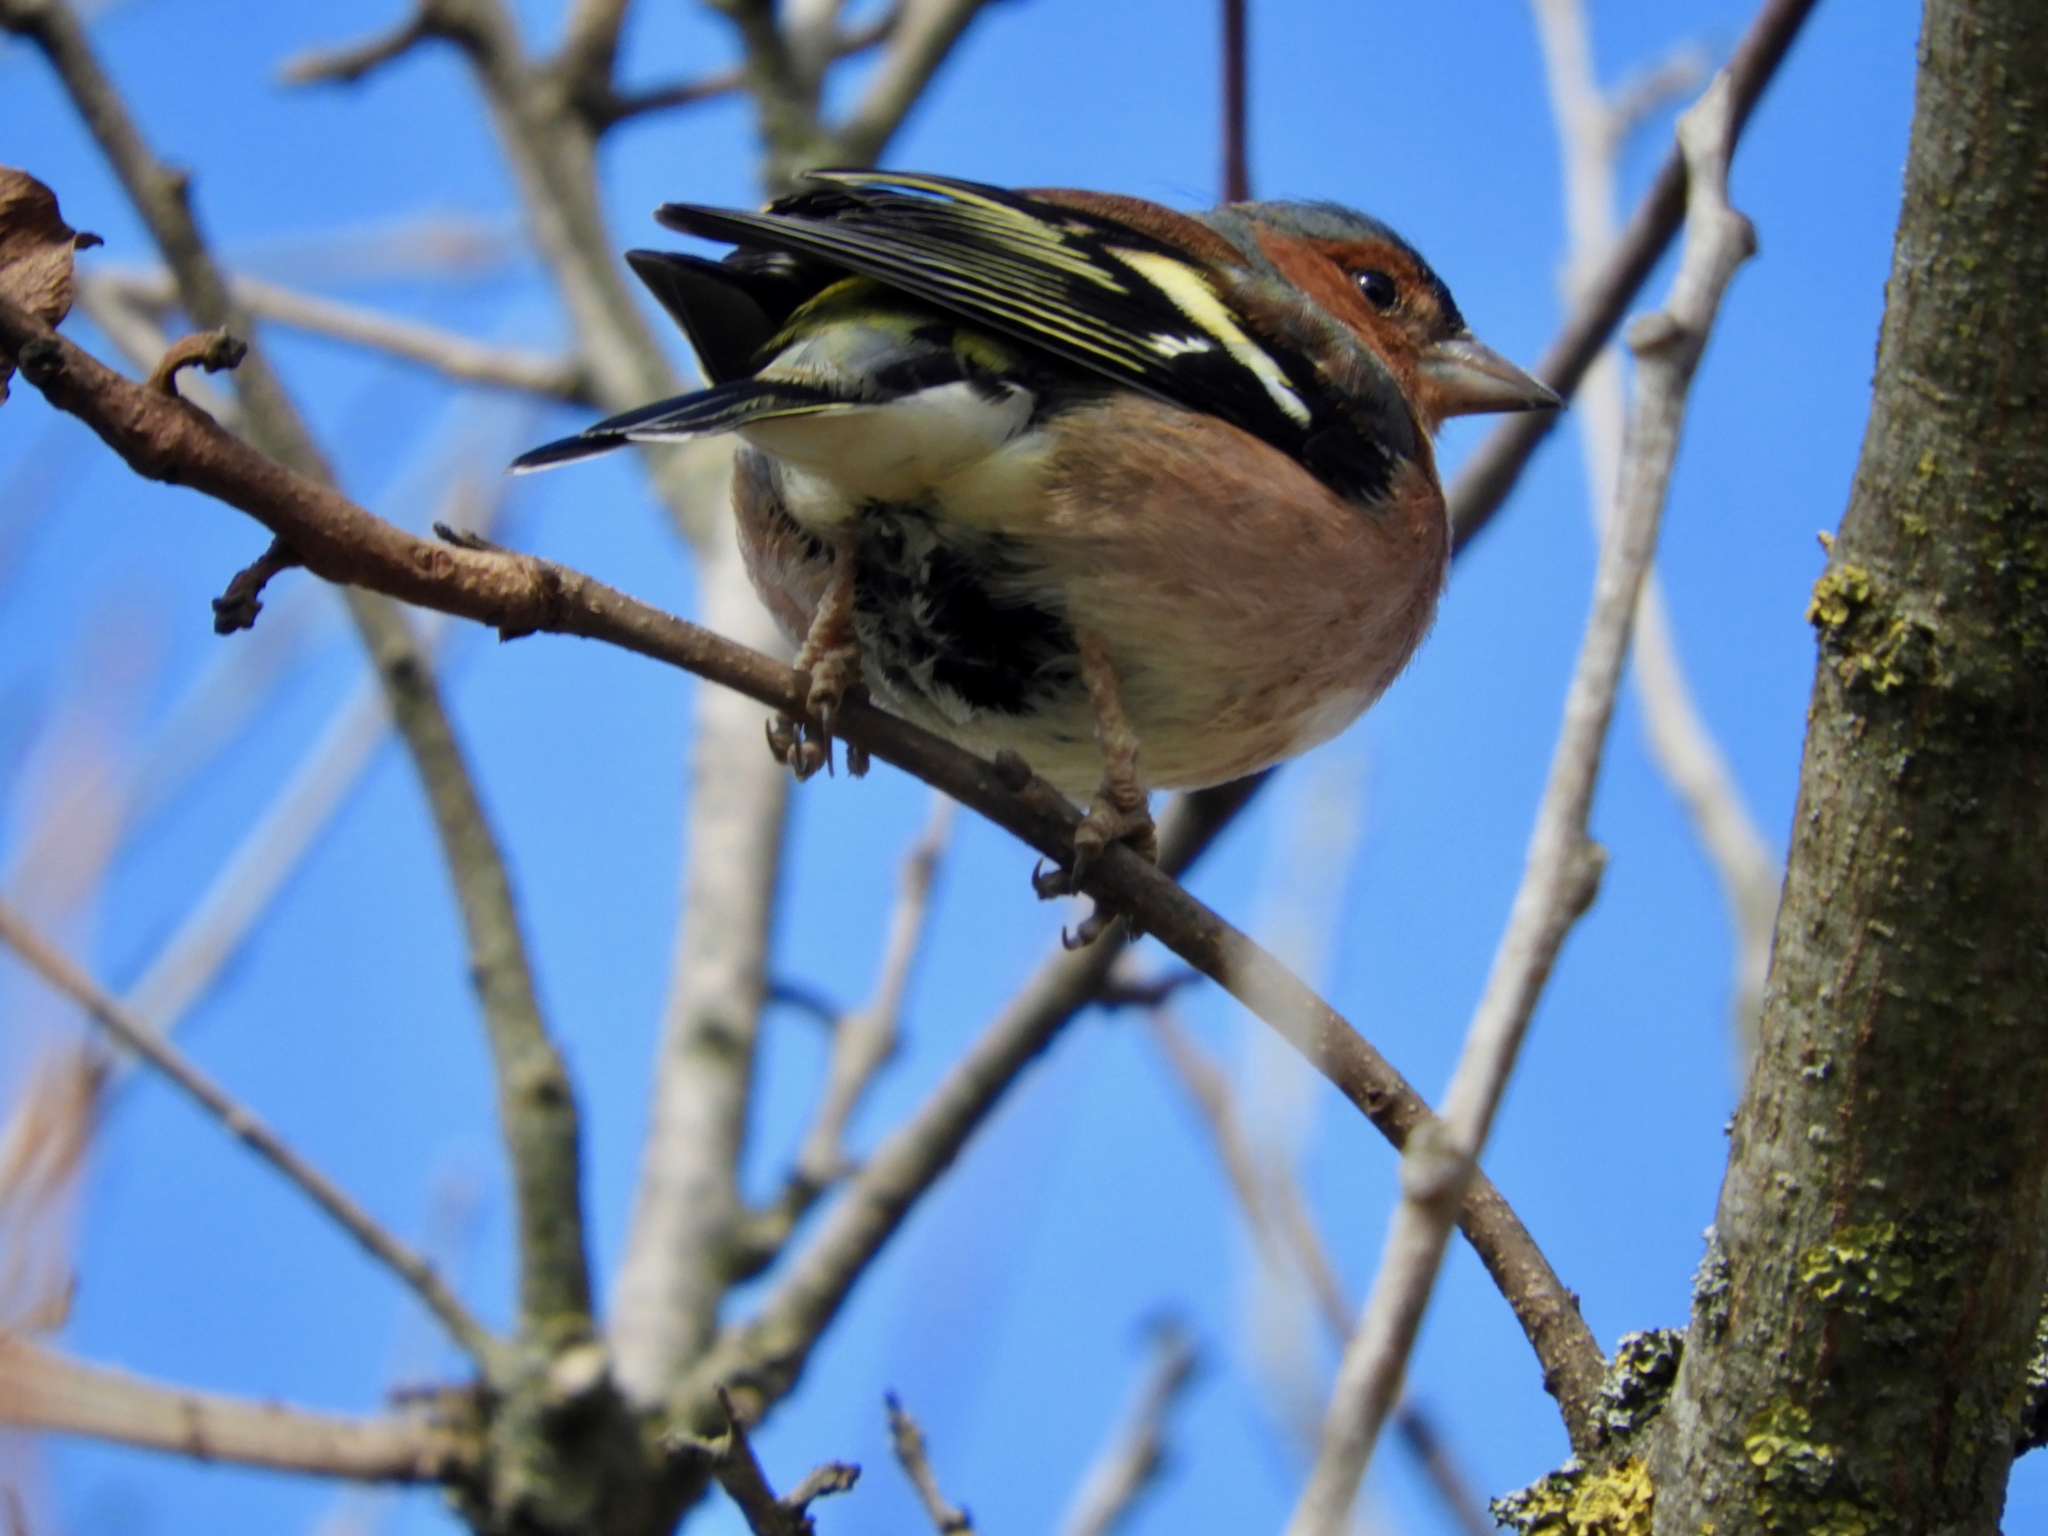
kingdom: Animalia
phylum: Chordata
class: Aves
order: Passeriformes
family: Fringillidae
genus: Fringilla
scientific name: Fringilla coelebs
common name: Common chaffinch
